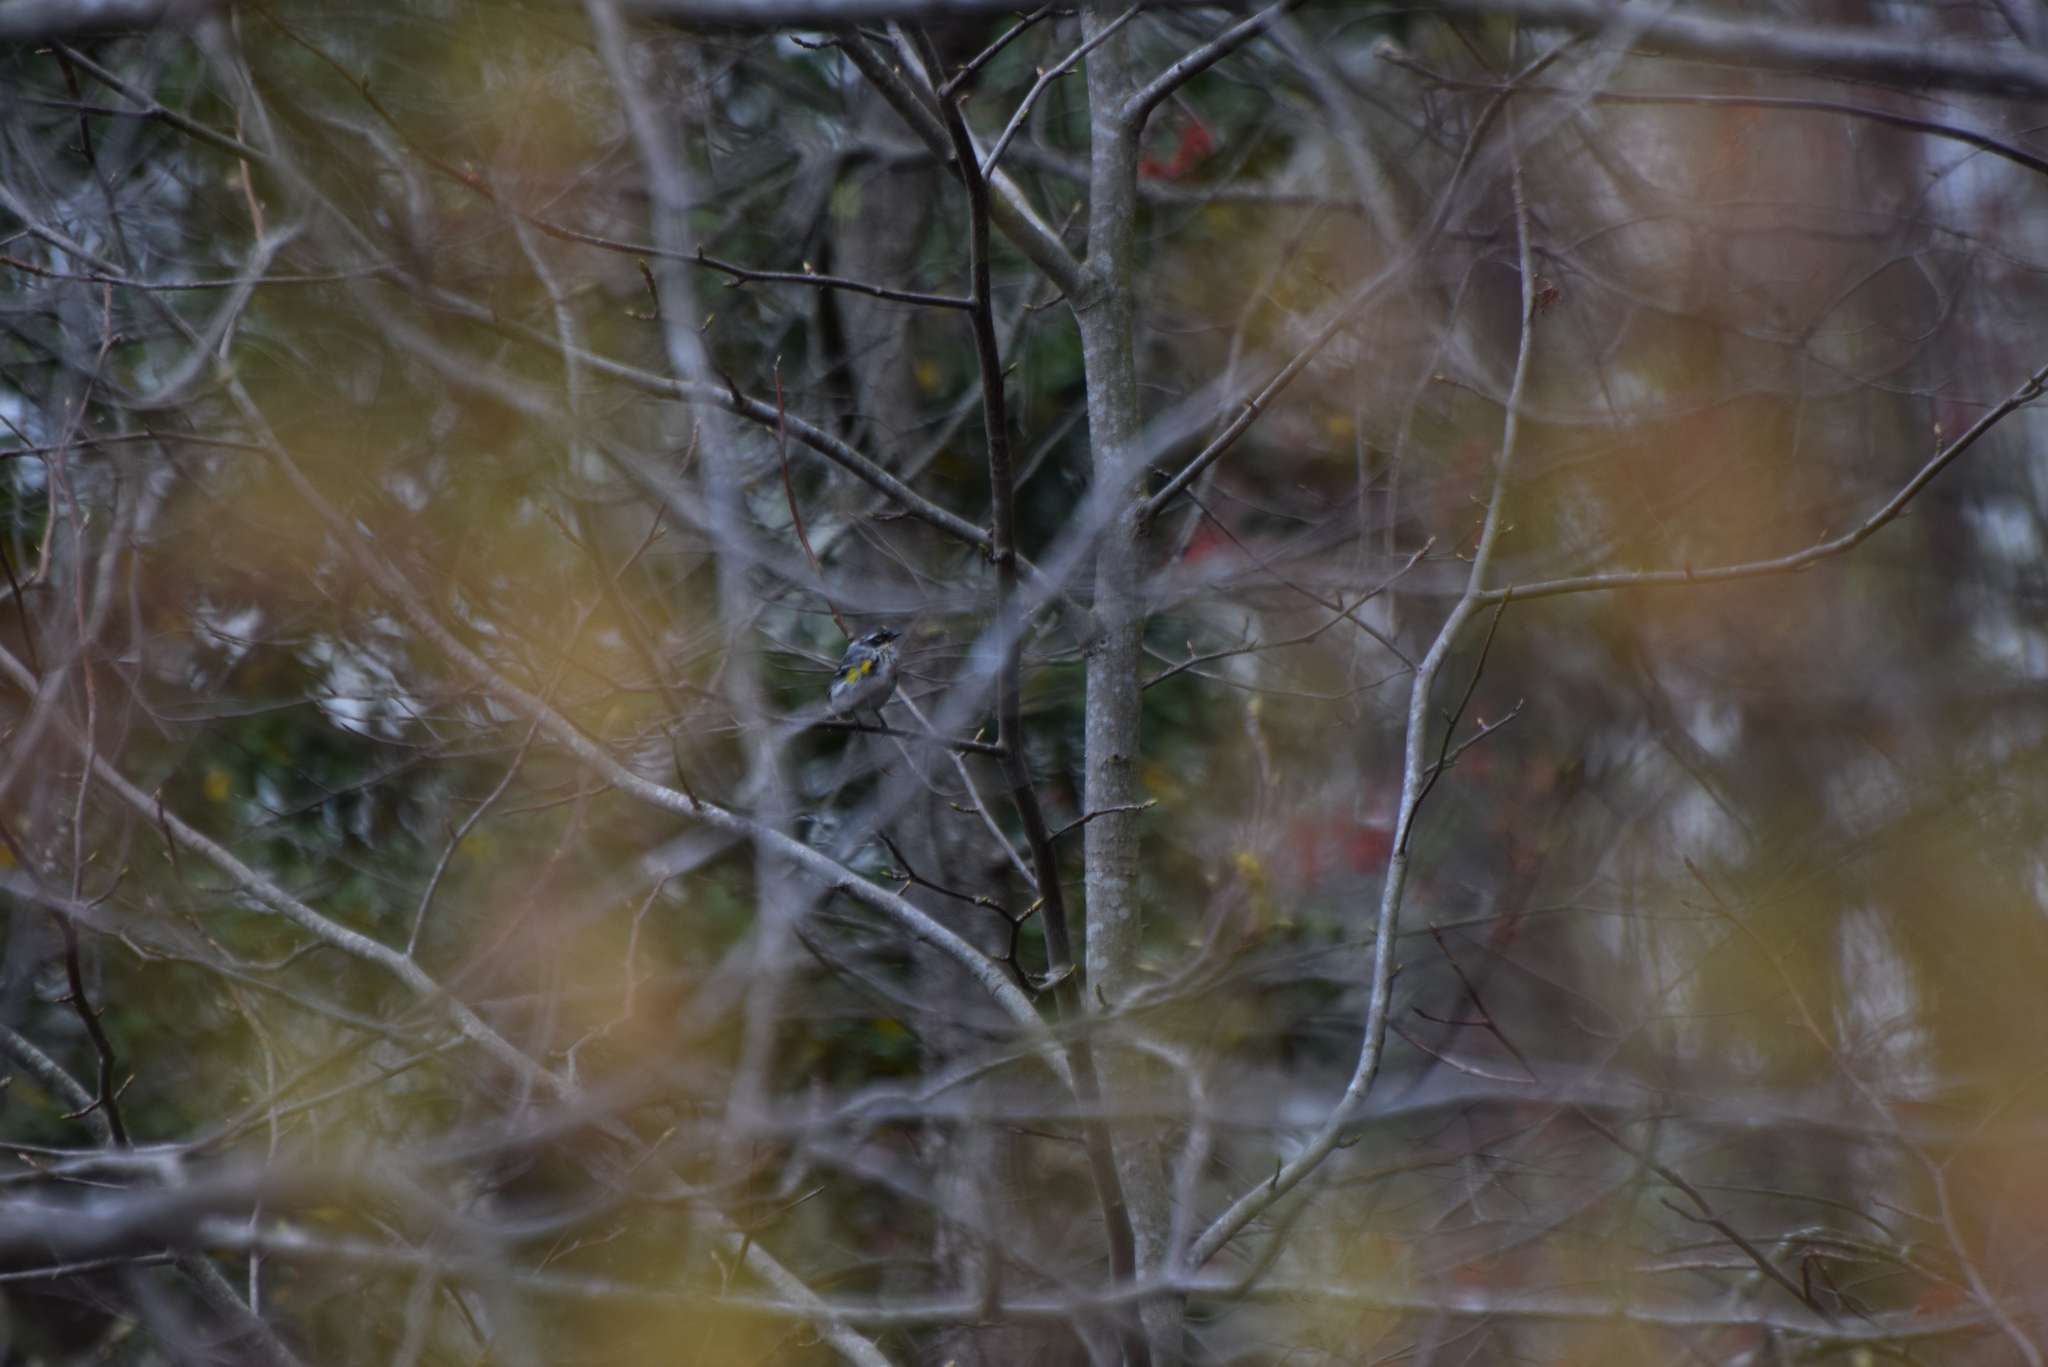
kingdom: Animalia
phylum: Chordata
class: Aves
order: Passeriformes
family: Parulidae
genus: Setophaga
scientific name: Setophaga coronata
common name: Myrtle warbler
